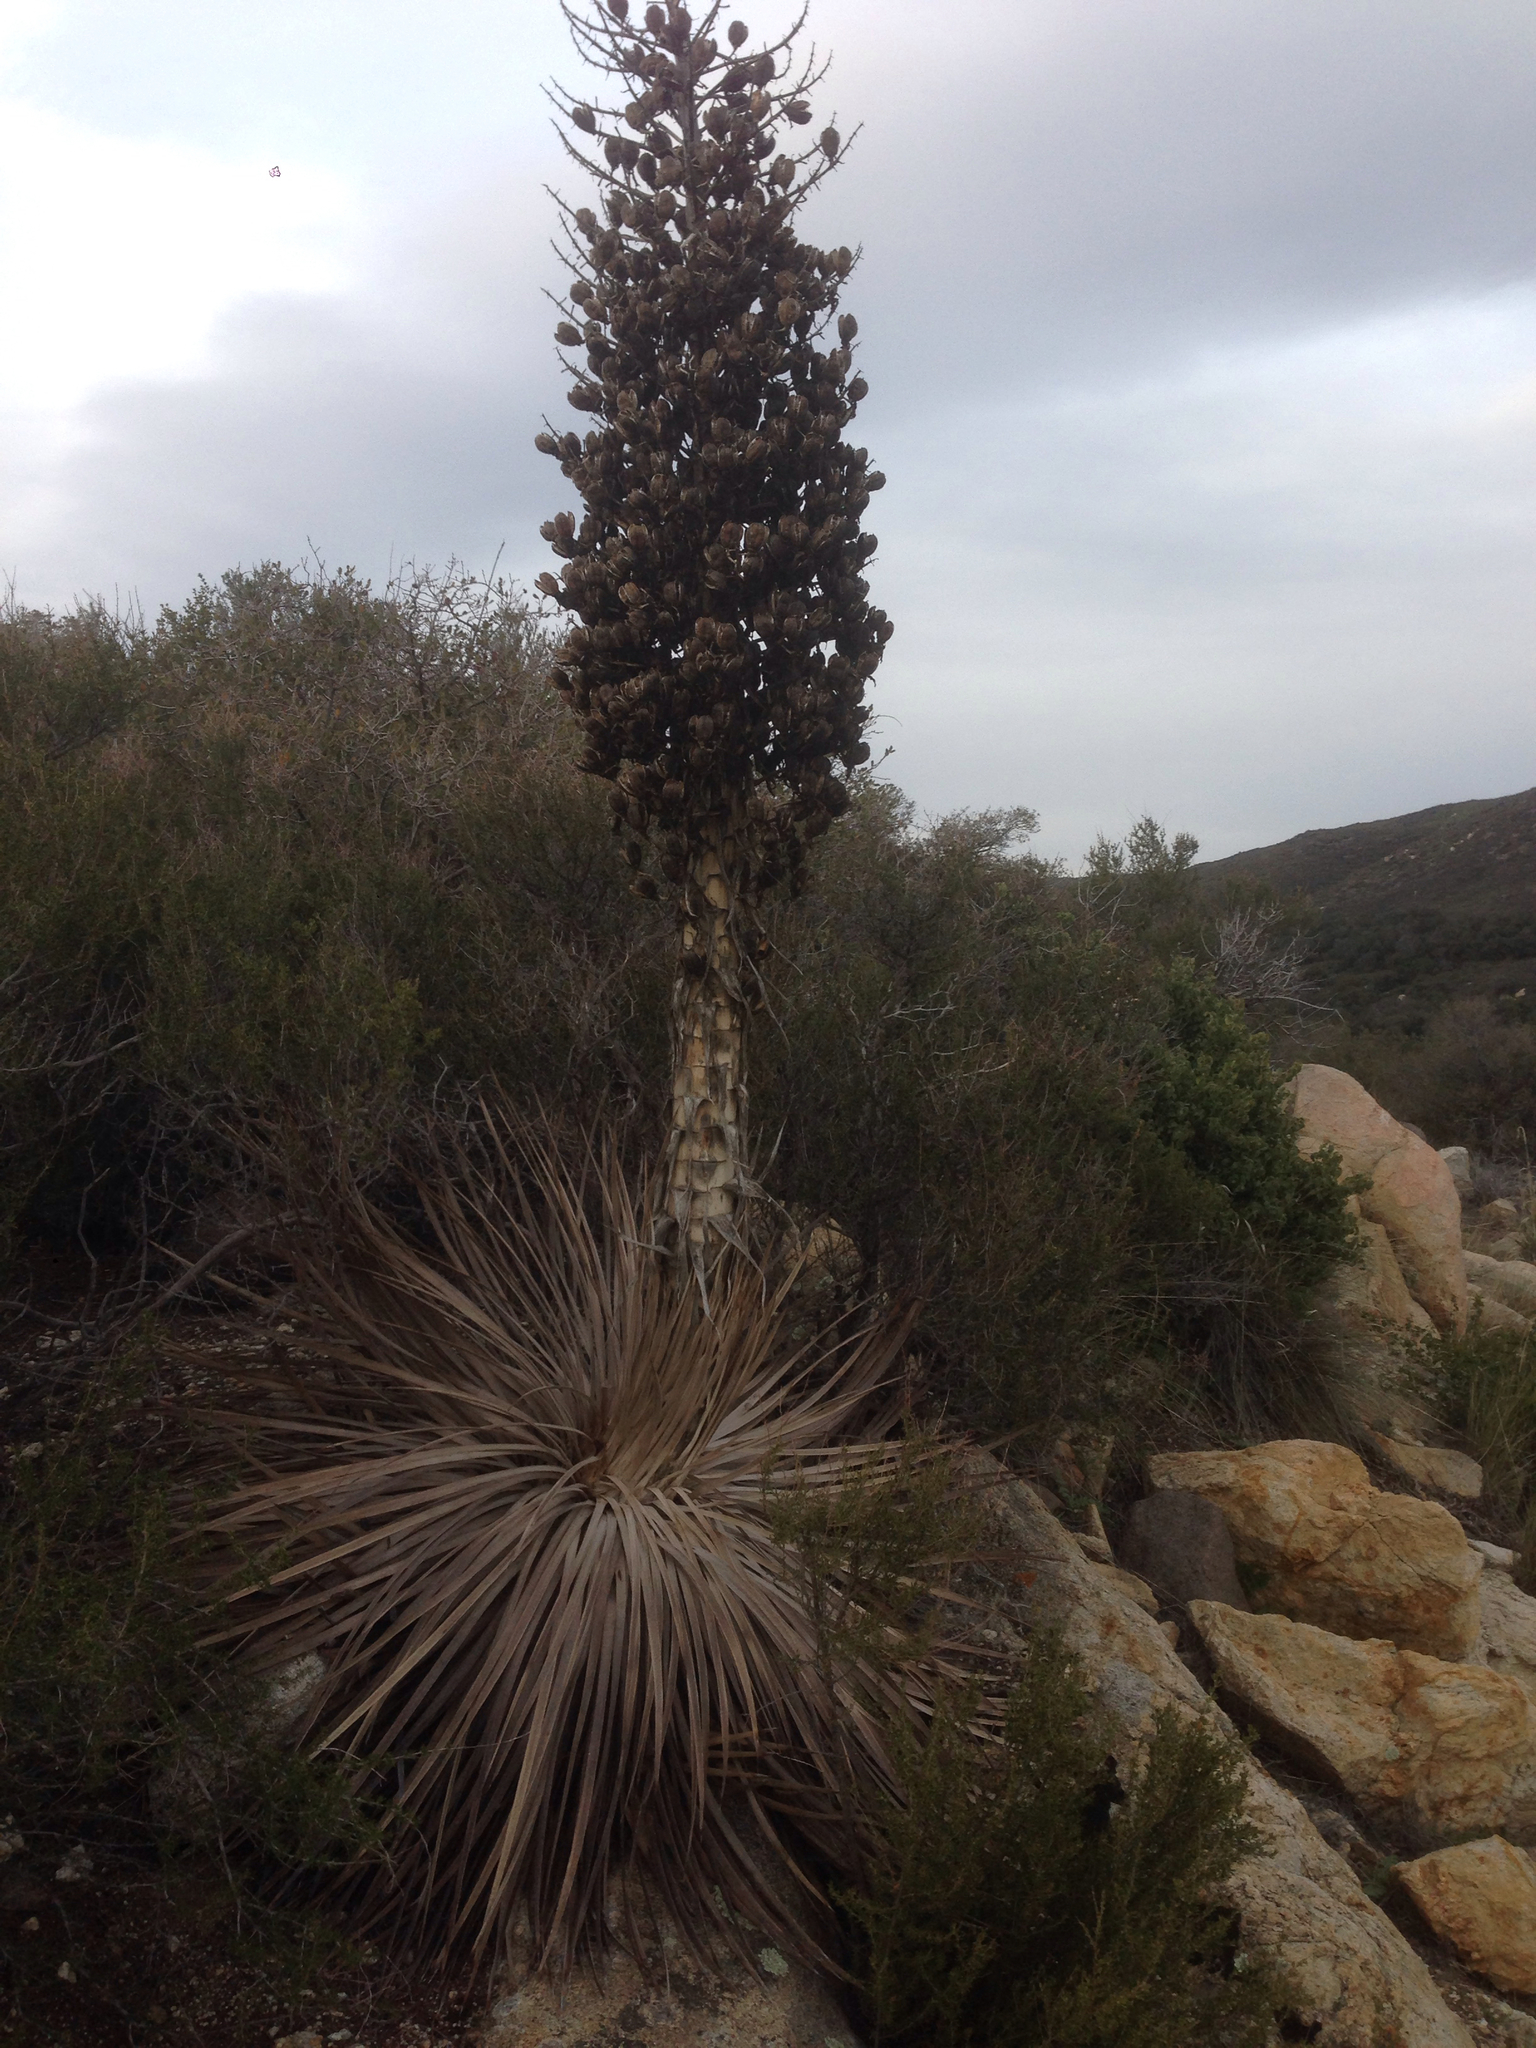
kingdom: Plantae
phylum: Tracheophyta
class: Liliopsida
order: Asparagales
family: Asparagaceae
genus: Hesperoyucca
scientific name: Hesperoyucca whipplei
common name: Our lord's-candle
